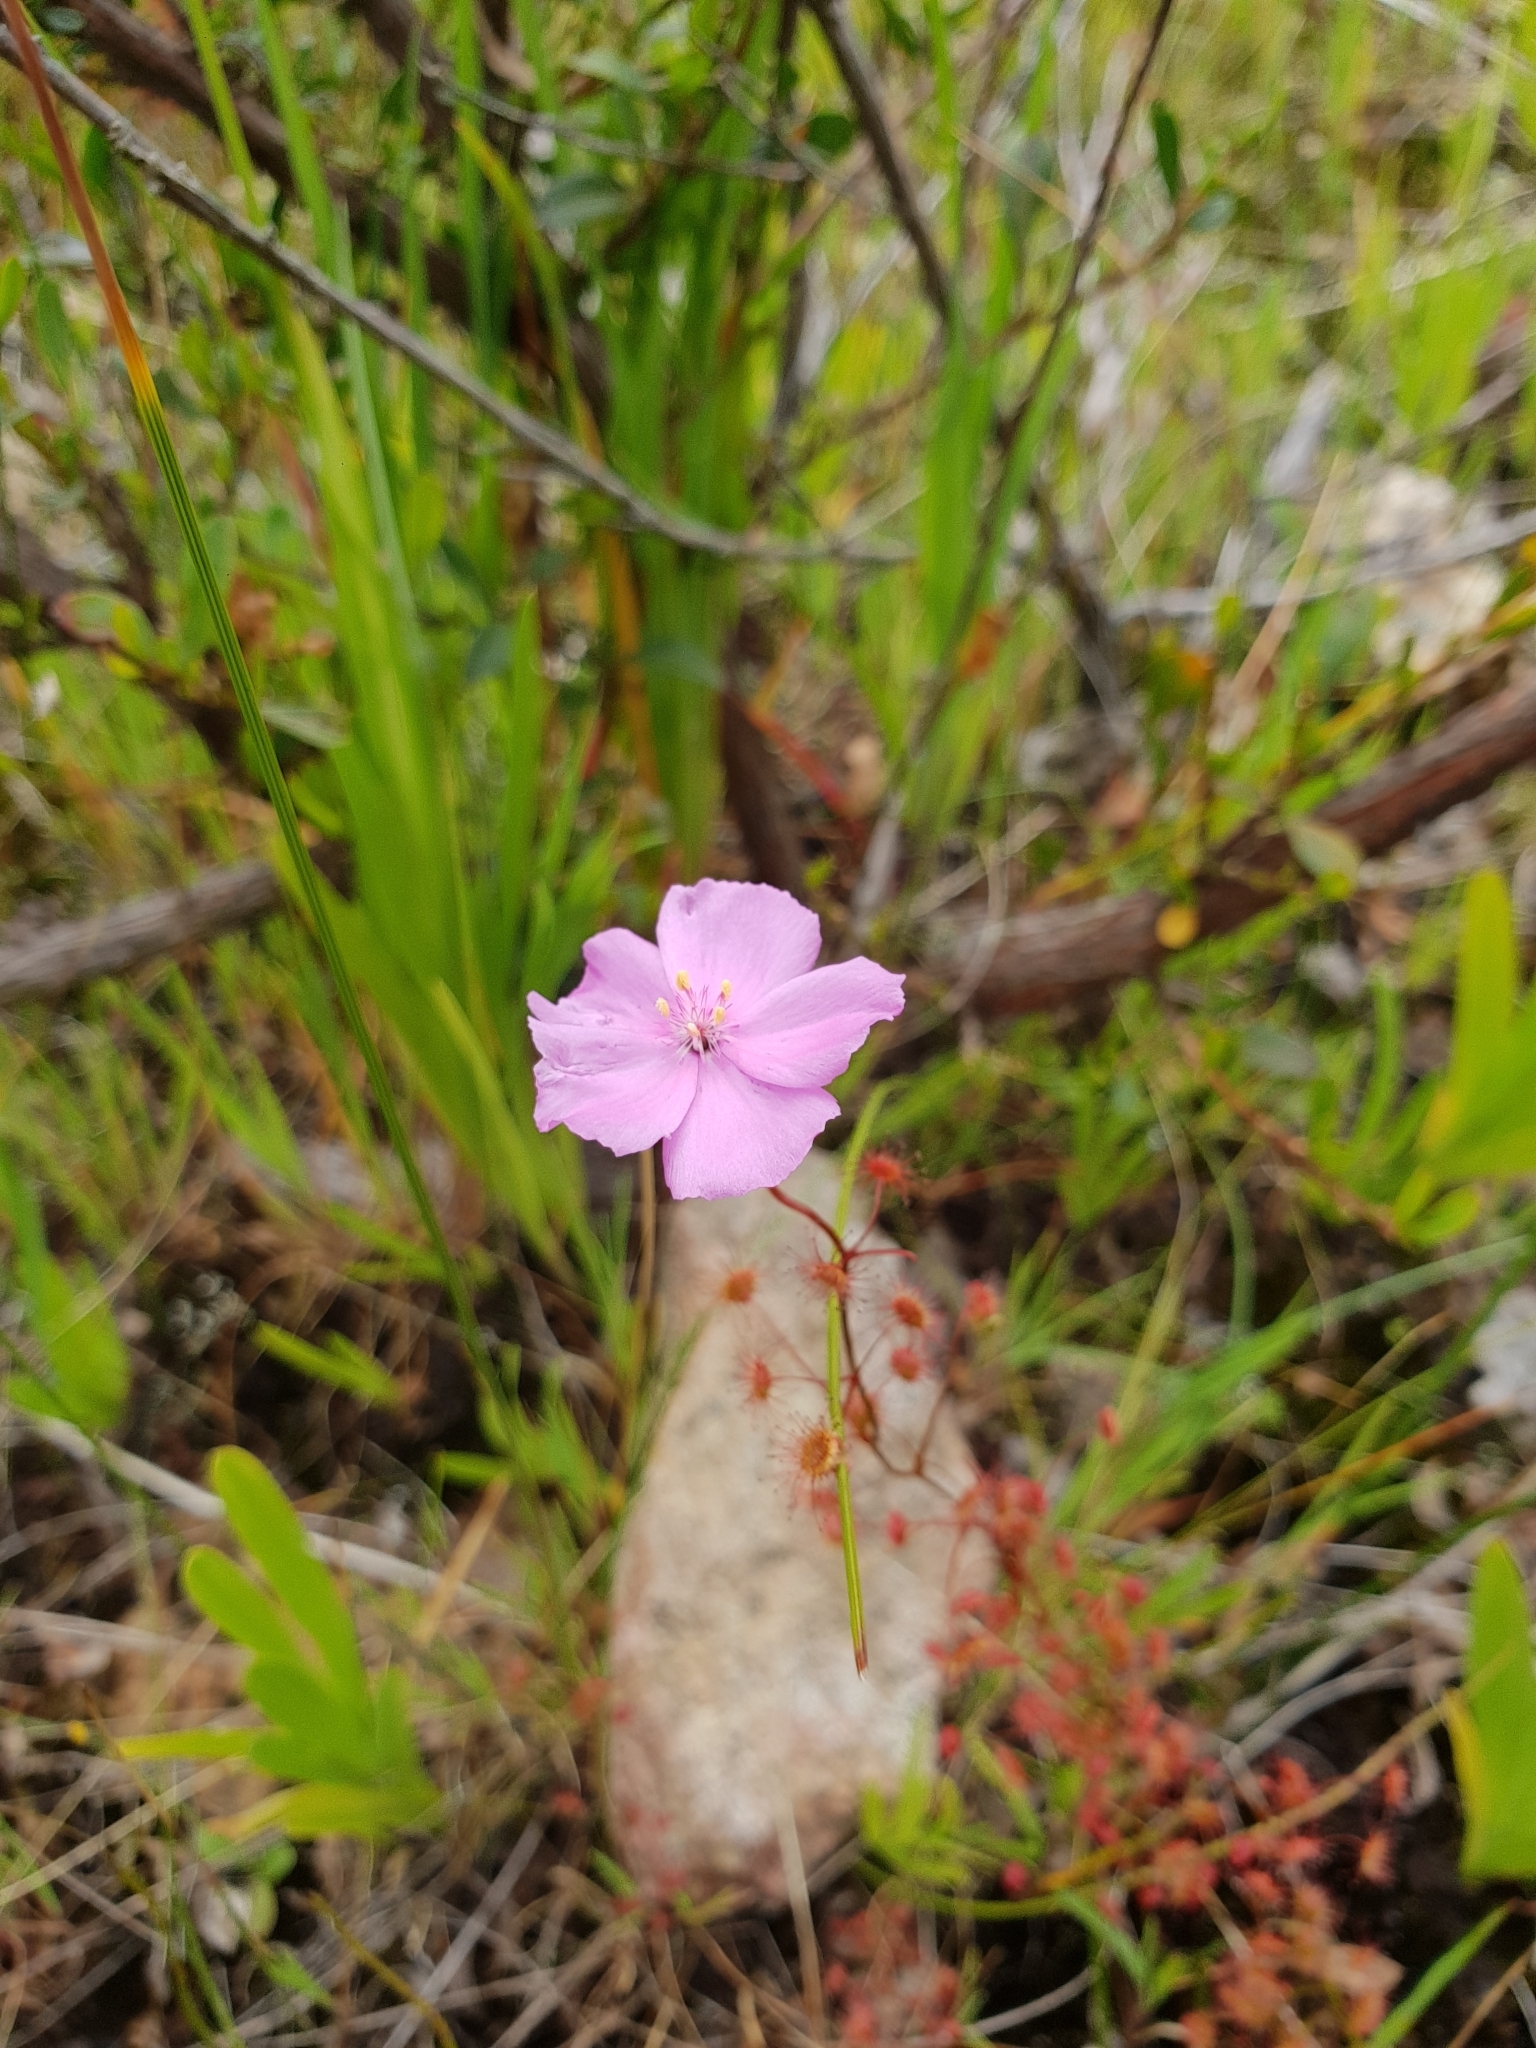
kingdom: Plantae
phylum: Tracheophyta
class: Magnoliopsida
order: Caryophyllales
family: Droseraceae
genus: Drosera
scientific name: Drosera
